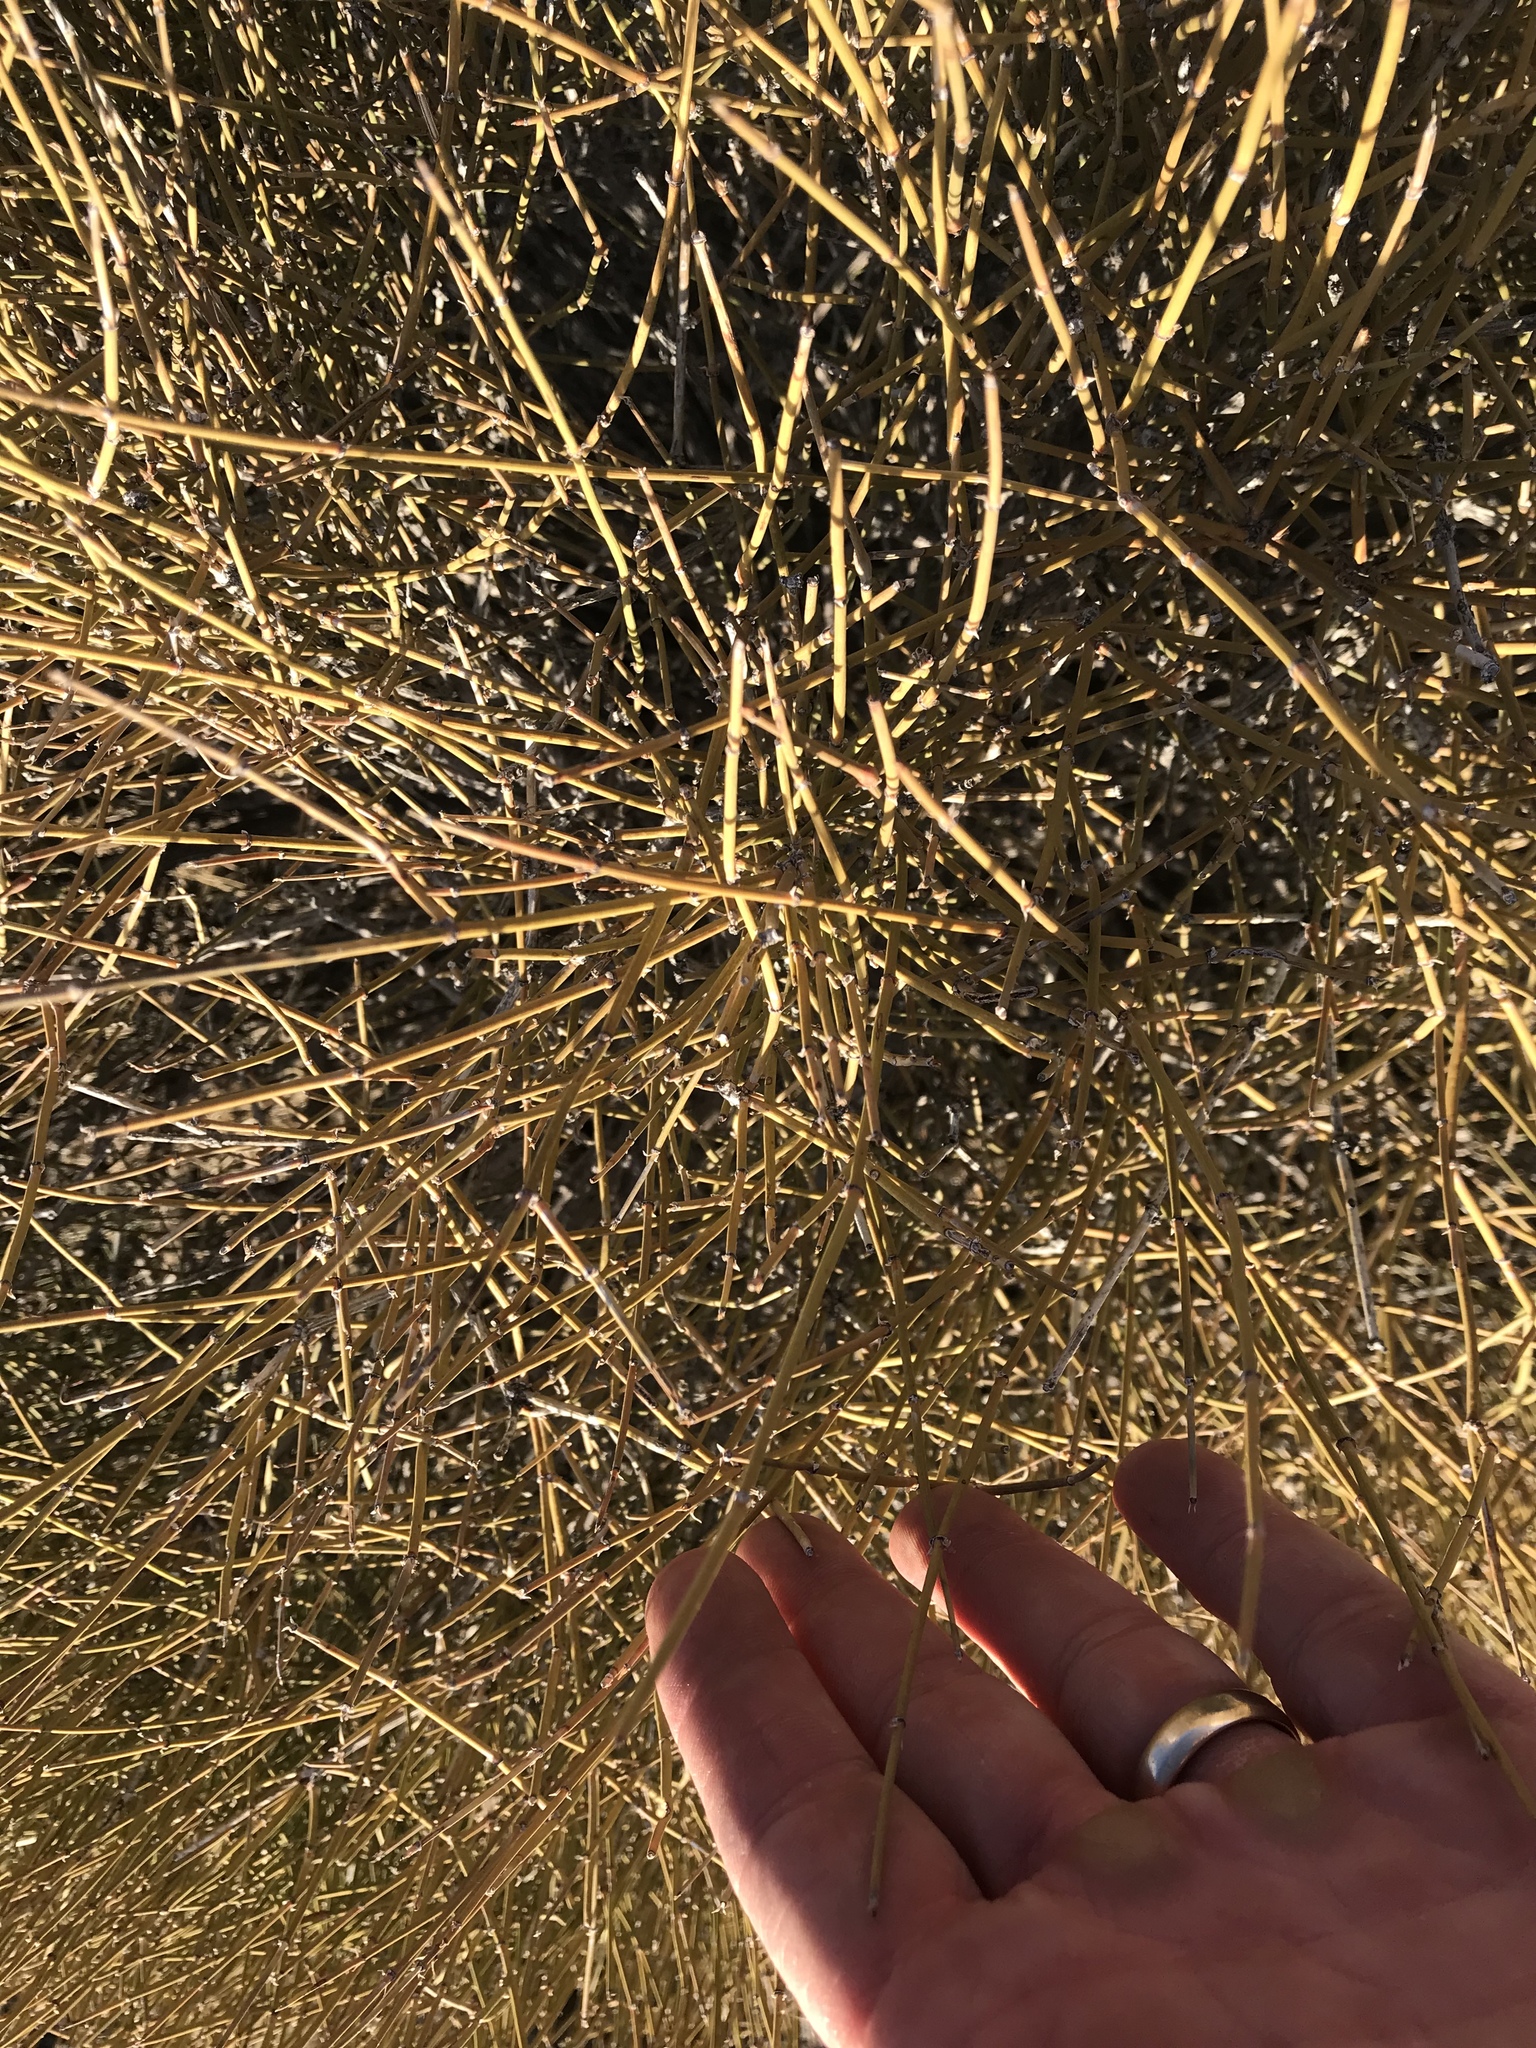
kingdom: Plantae
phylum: Tracheophyta
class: Gnetopsida
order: Ephedrales
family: Ephedraceae
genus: Ephedra
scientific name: Ephedra trifurca
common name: Mexican-tea
